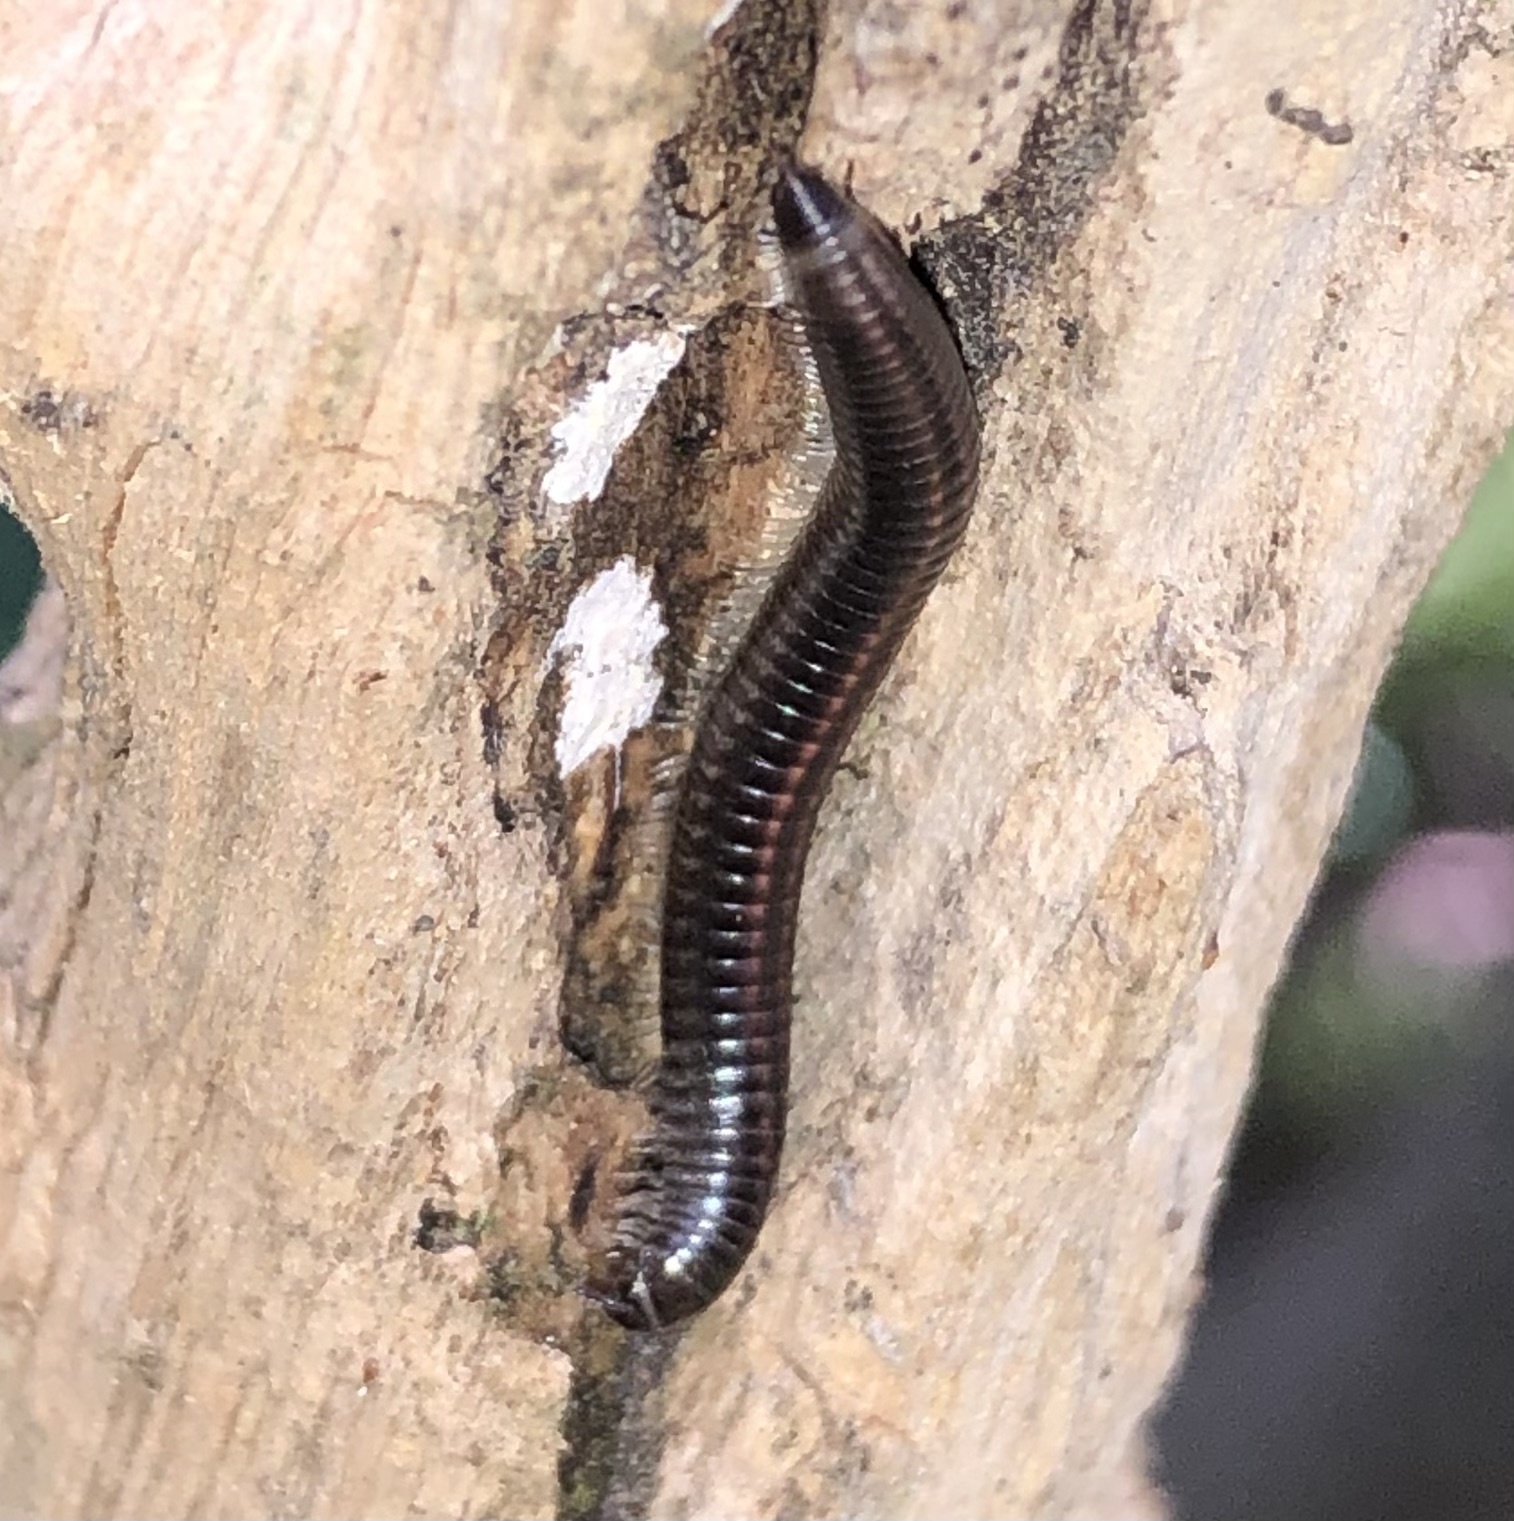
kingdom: Animalia
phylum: Arthropoda
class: Diplopoda
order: Julida
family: Julidae
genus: Ommatoiulus
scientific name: Ommatoiulus sabulosus
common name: Striped millipede
